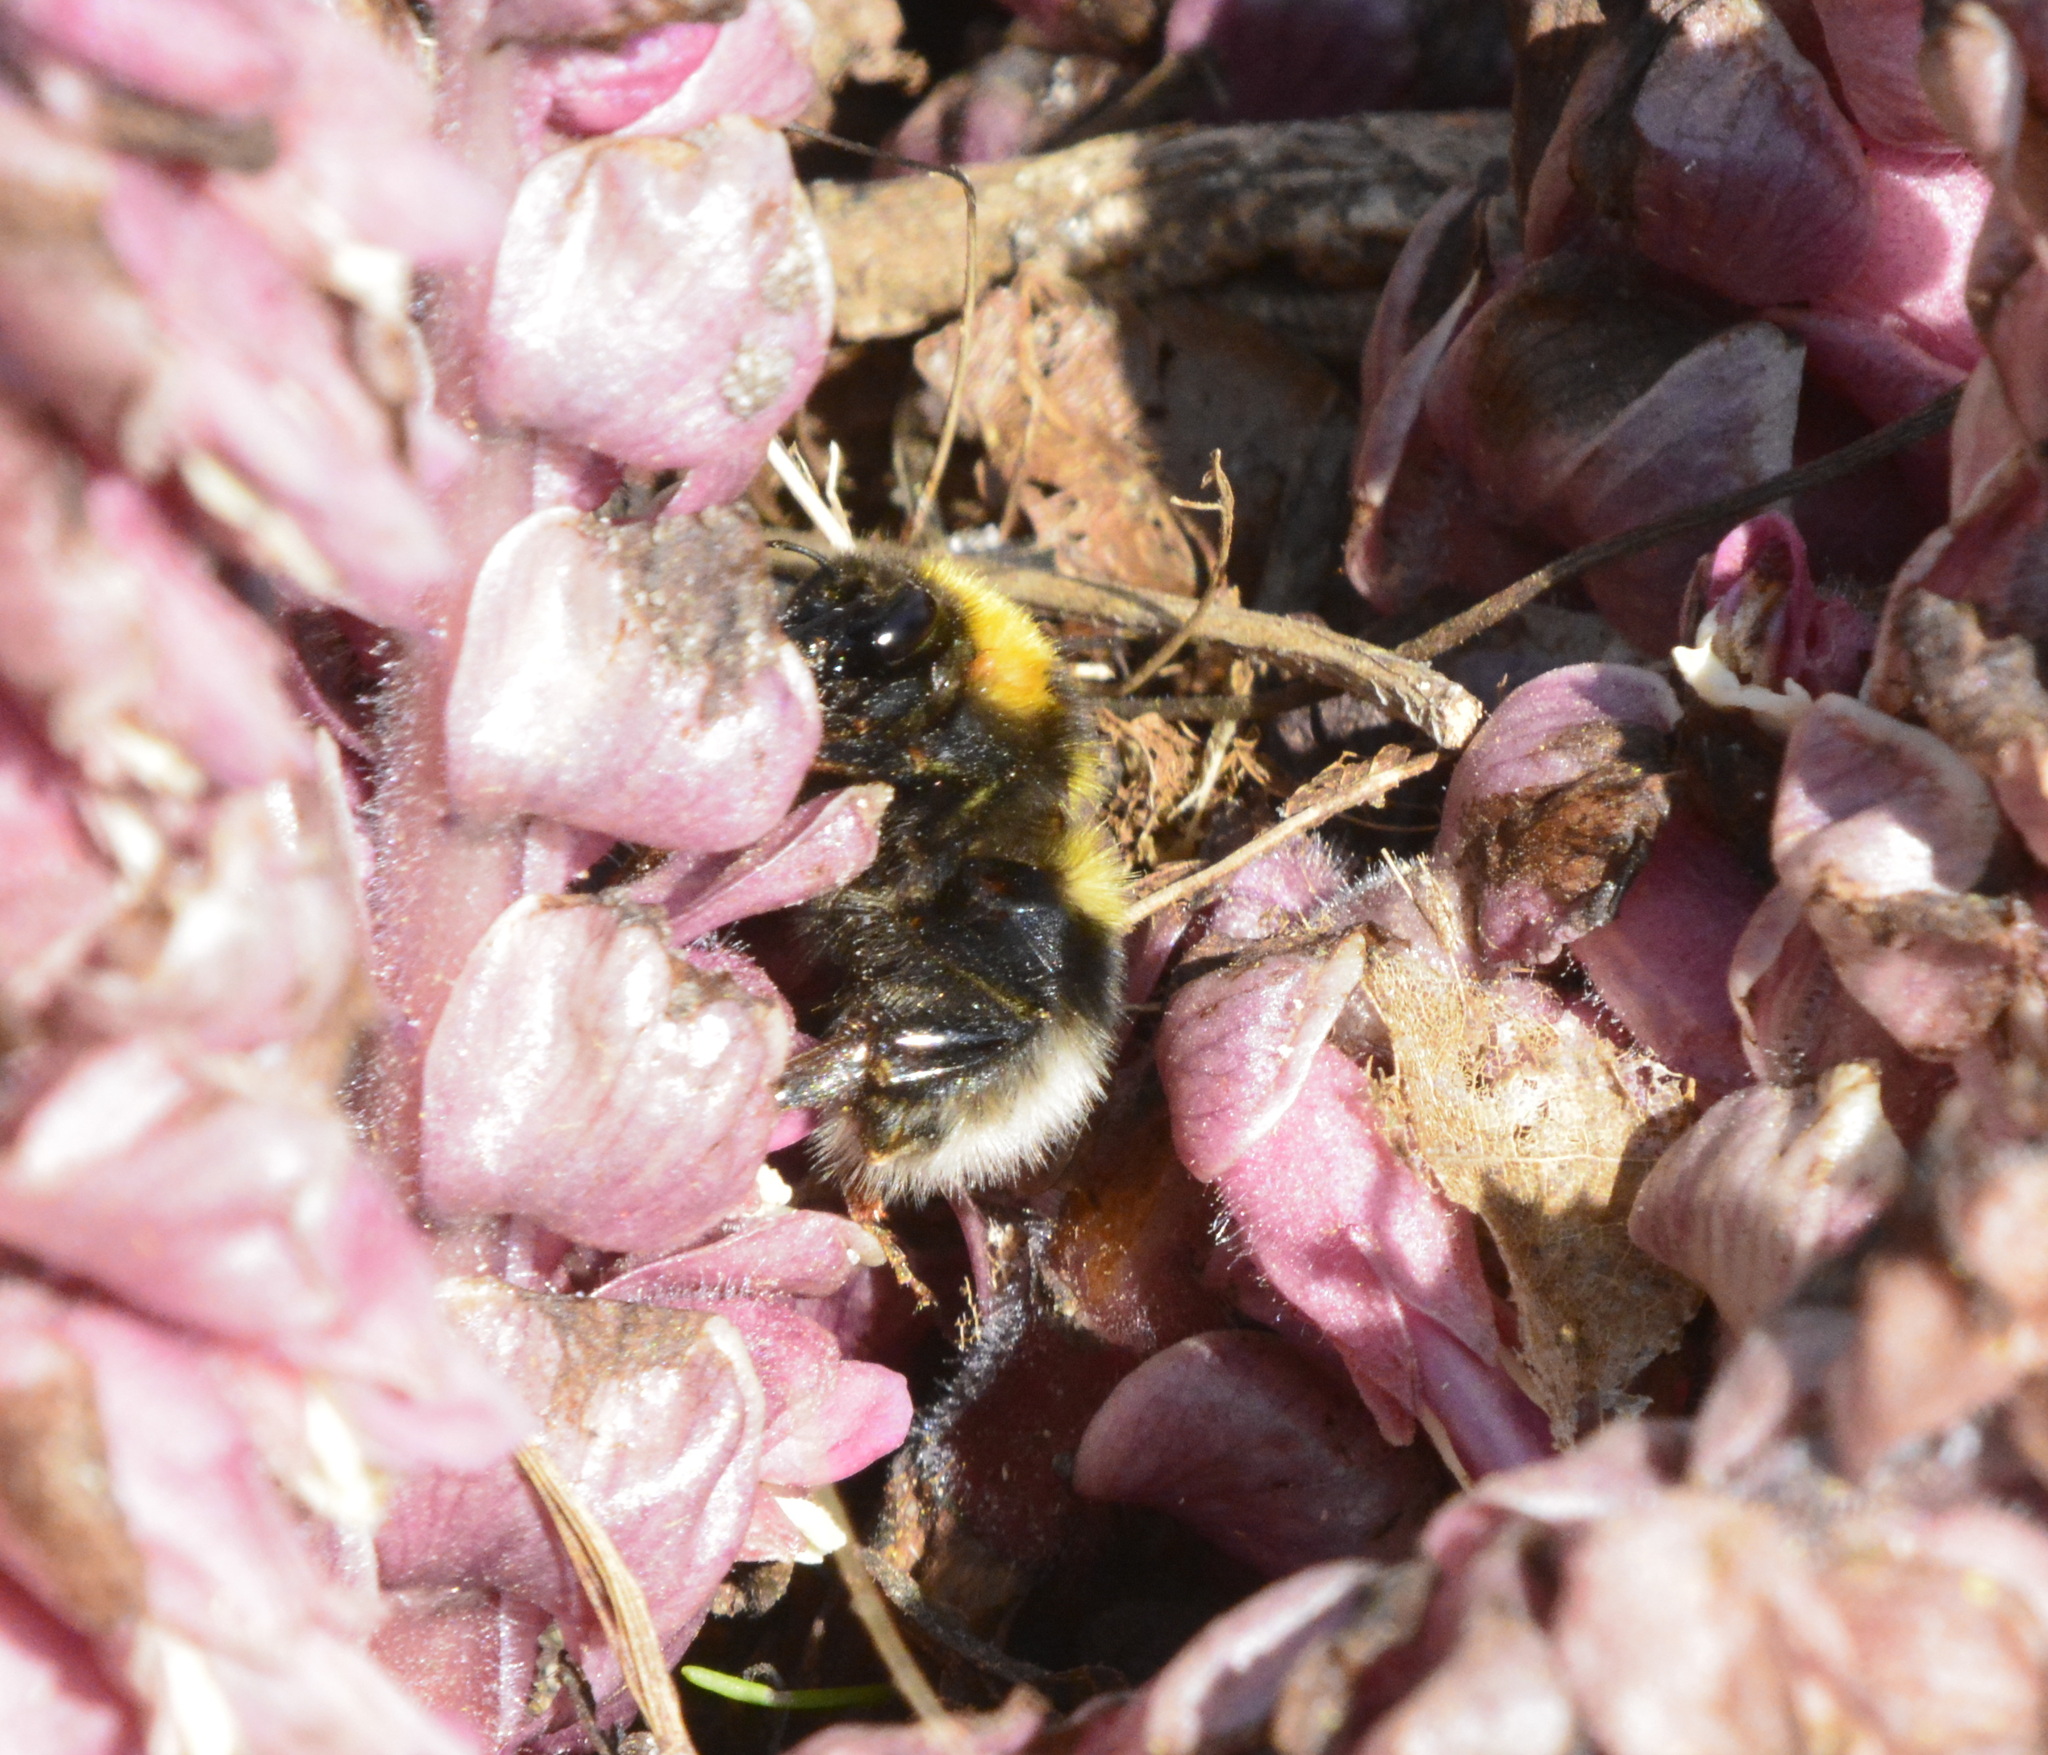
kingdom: Animalia
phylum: Arthropoda
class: Insecta
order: Hymenoptera
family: Apidae
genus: Bombus
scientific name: Bombus hortorum
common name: Garden bumblebee
